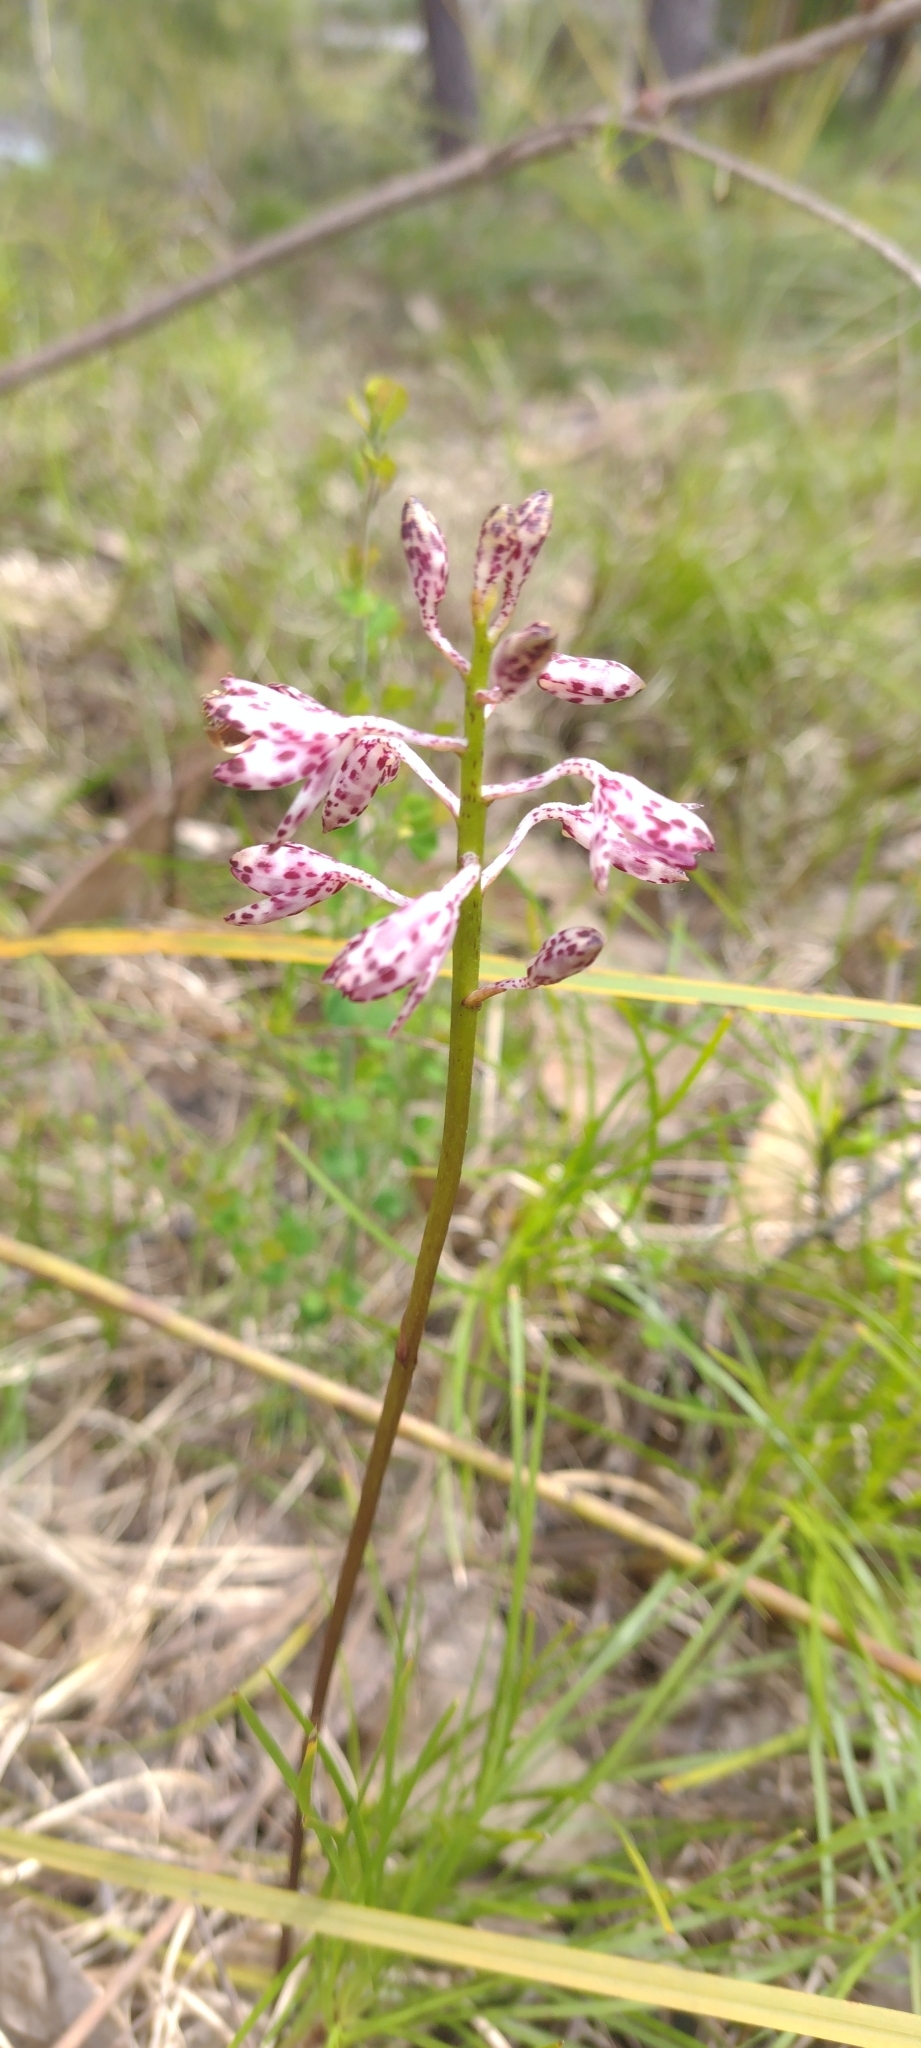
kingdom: Plantae
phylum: Tracheophyta
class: Liliopsida
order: Asparagales
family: Orchidaceae
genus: Dipodium
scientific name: Dipodium variegatum
